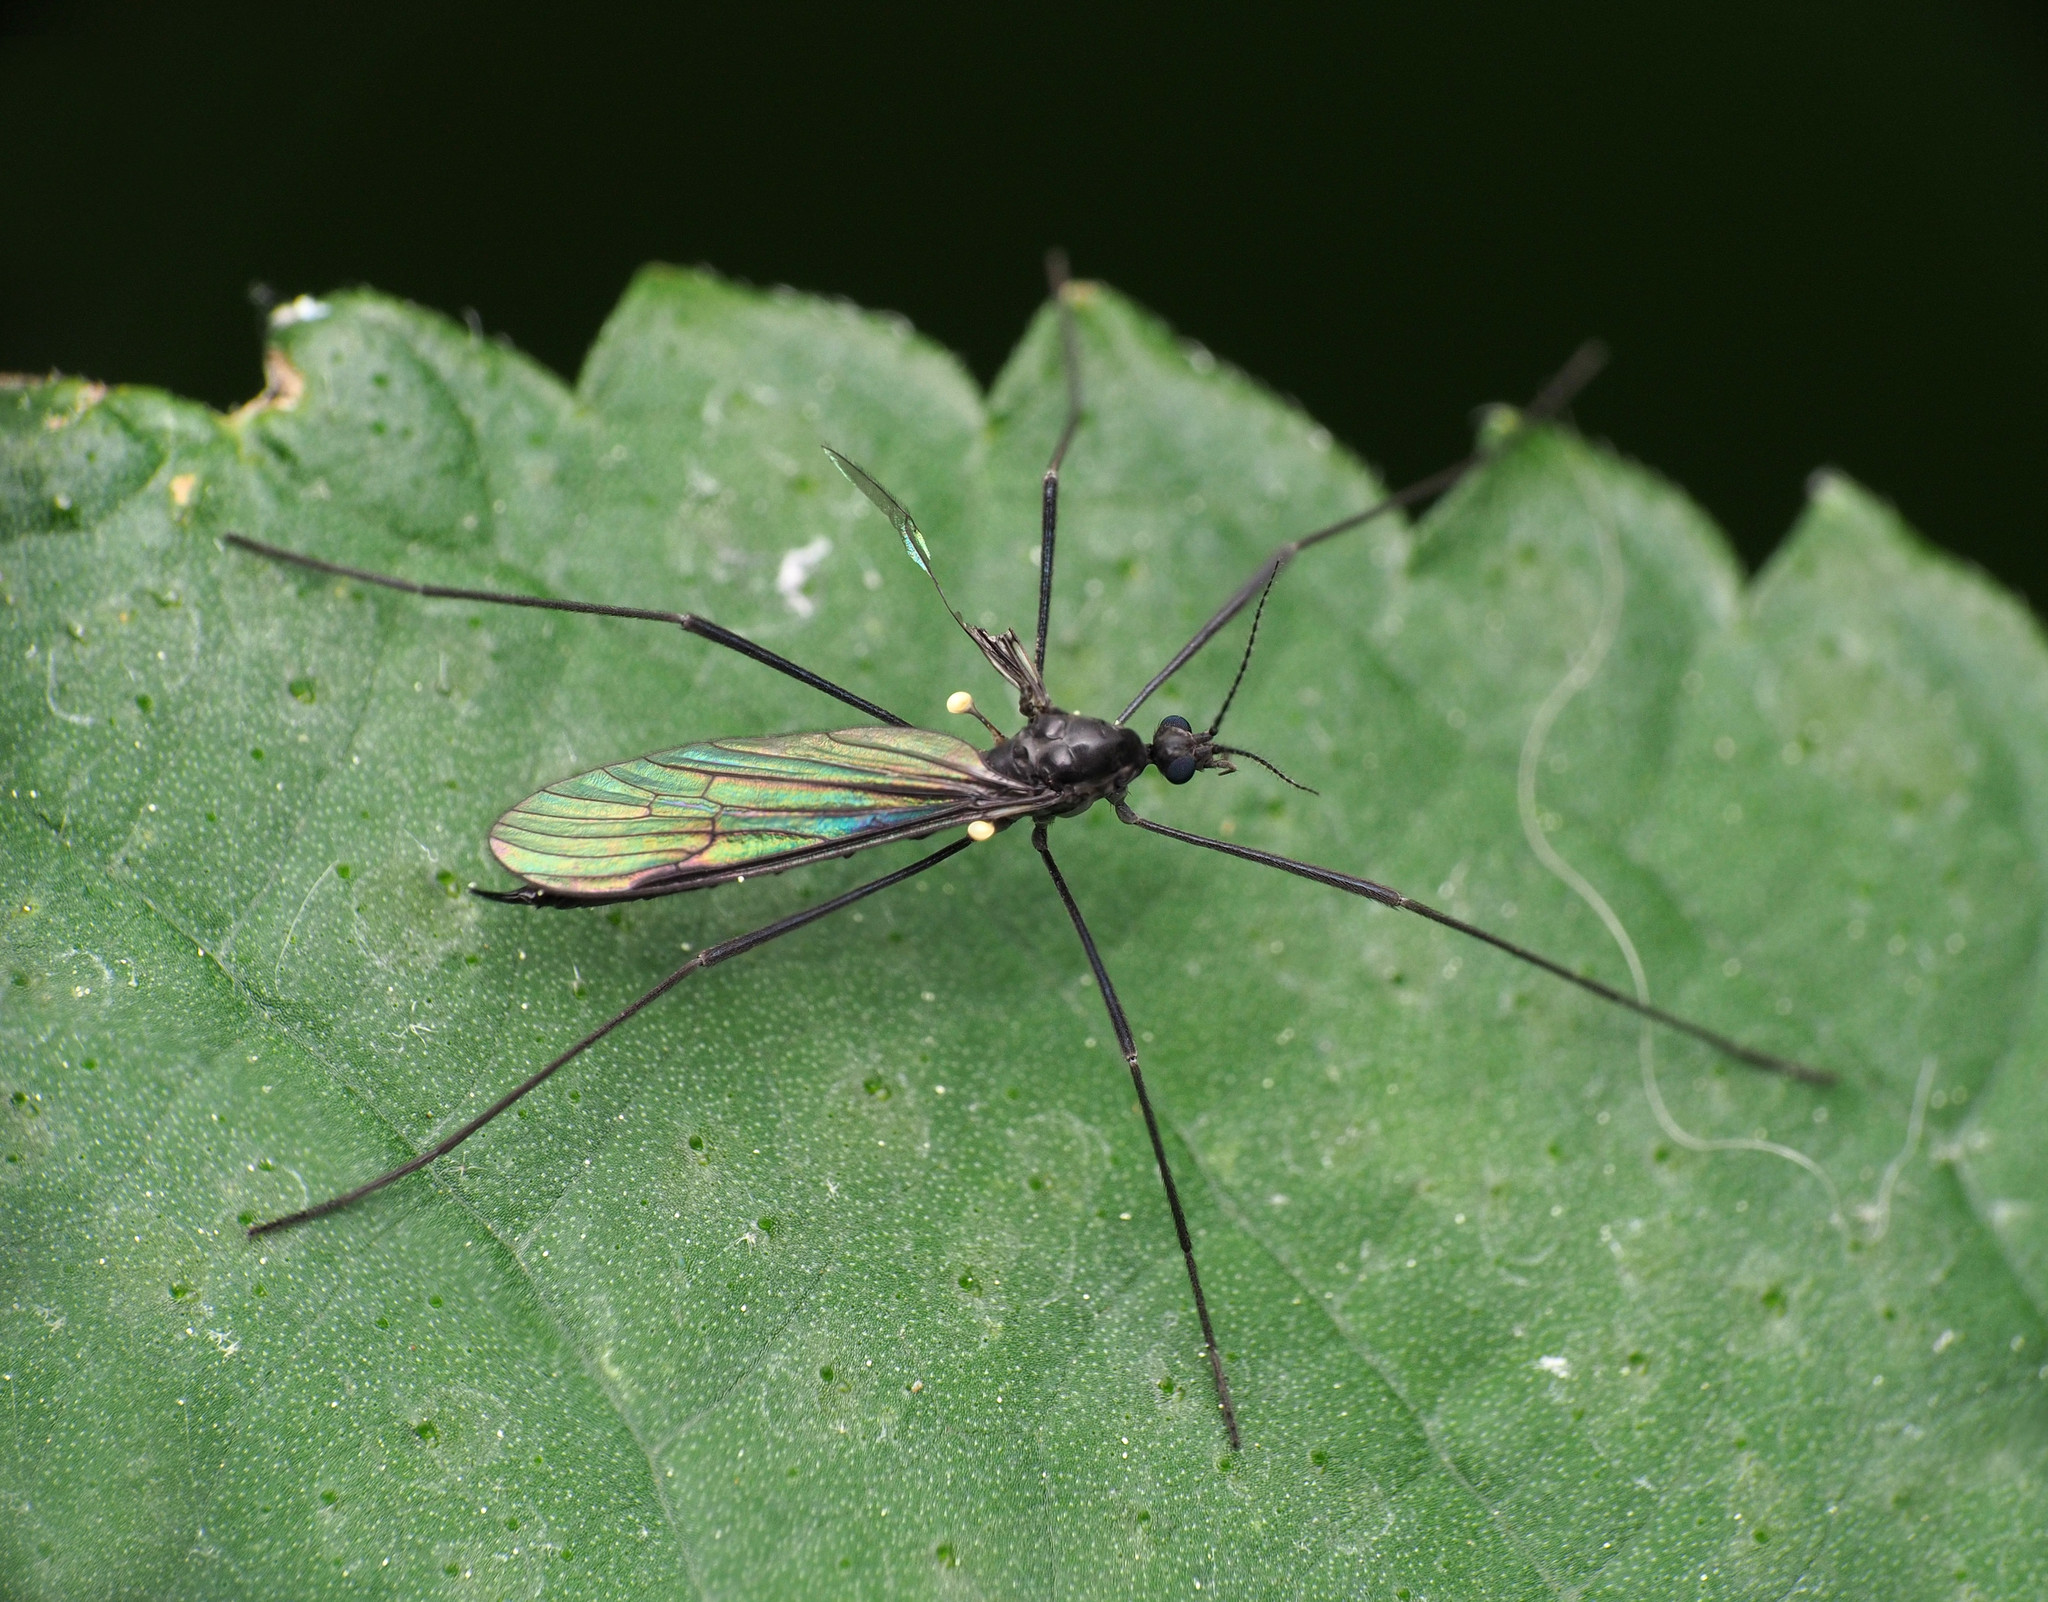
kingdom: Animalia
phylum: Arthropoda
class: Insecta
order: Diptera
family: Limoniidae
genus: Gnophomyia
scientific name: Gnophomyia tristissima
